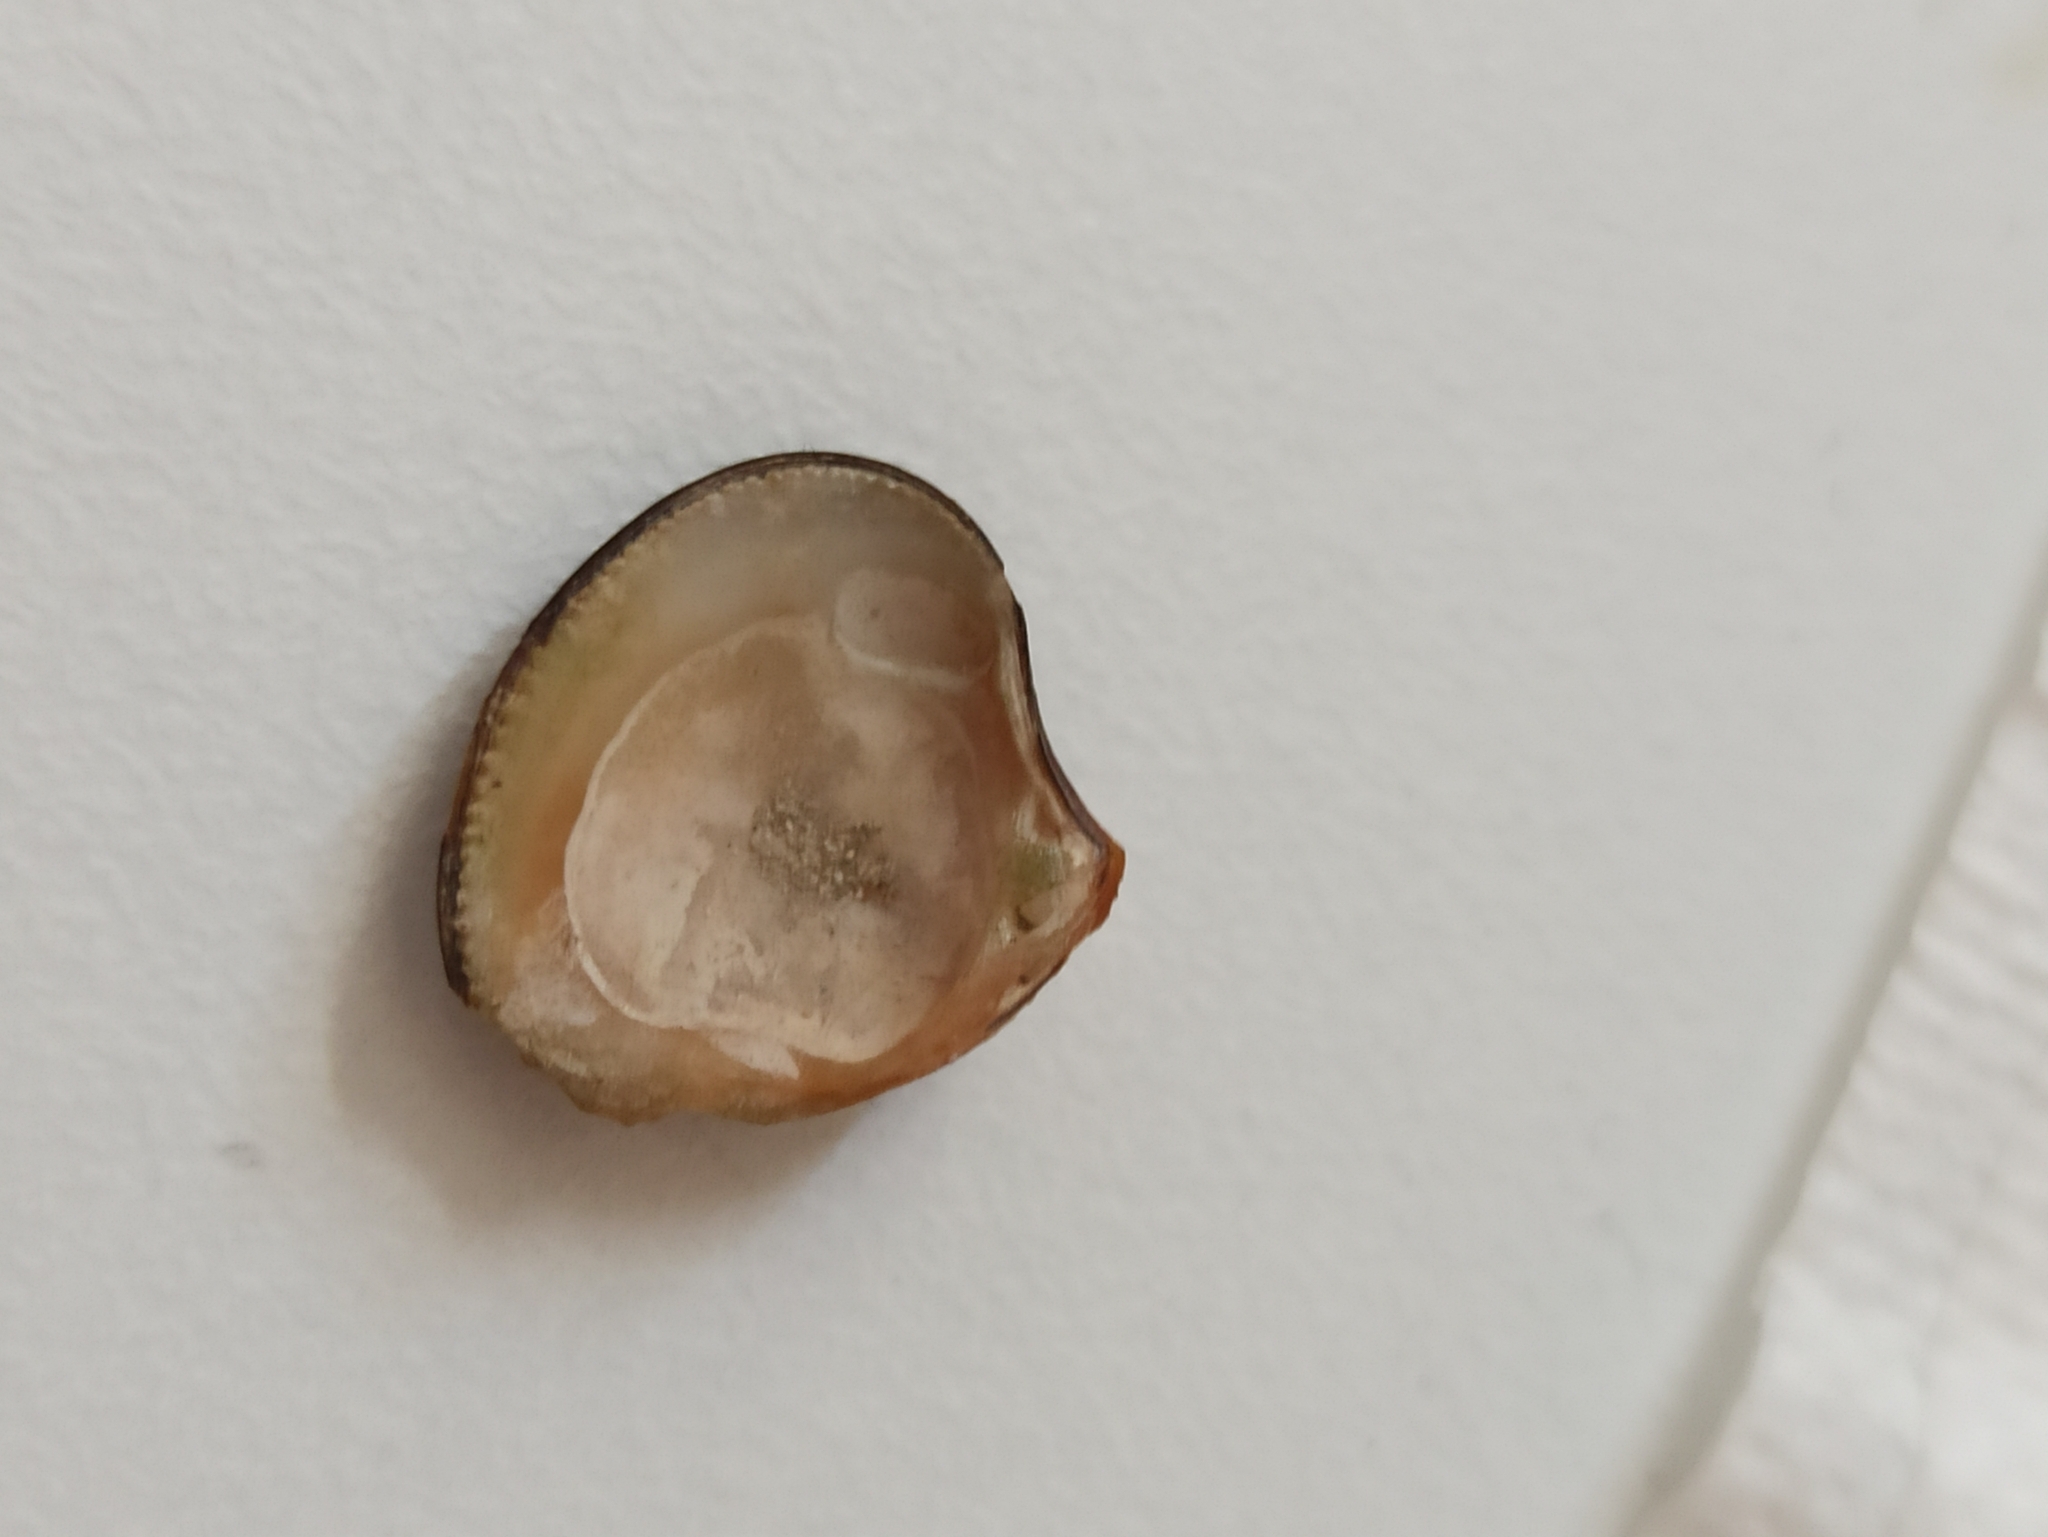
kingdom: Animalia
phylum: Mollusca
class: Bivalvia
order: Carditida
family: Astartidae
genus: Astarte
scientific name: Astarte sulcata
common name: Sulcate astarte
